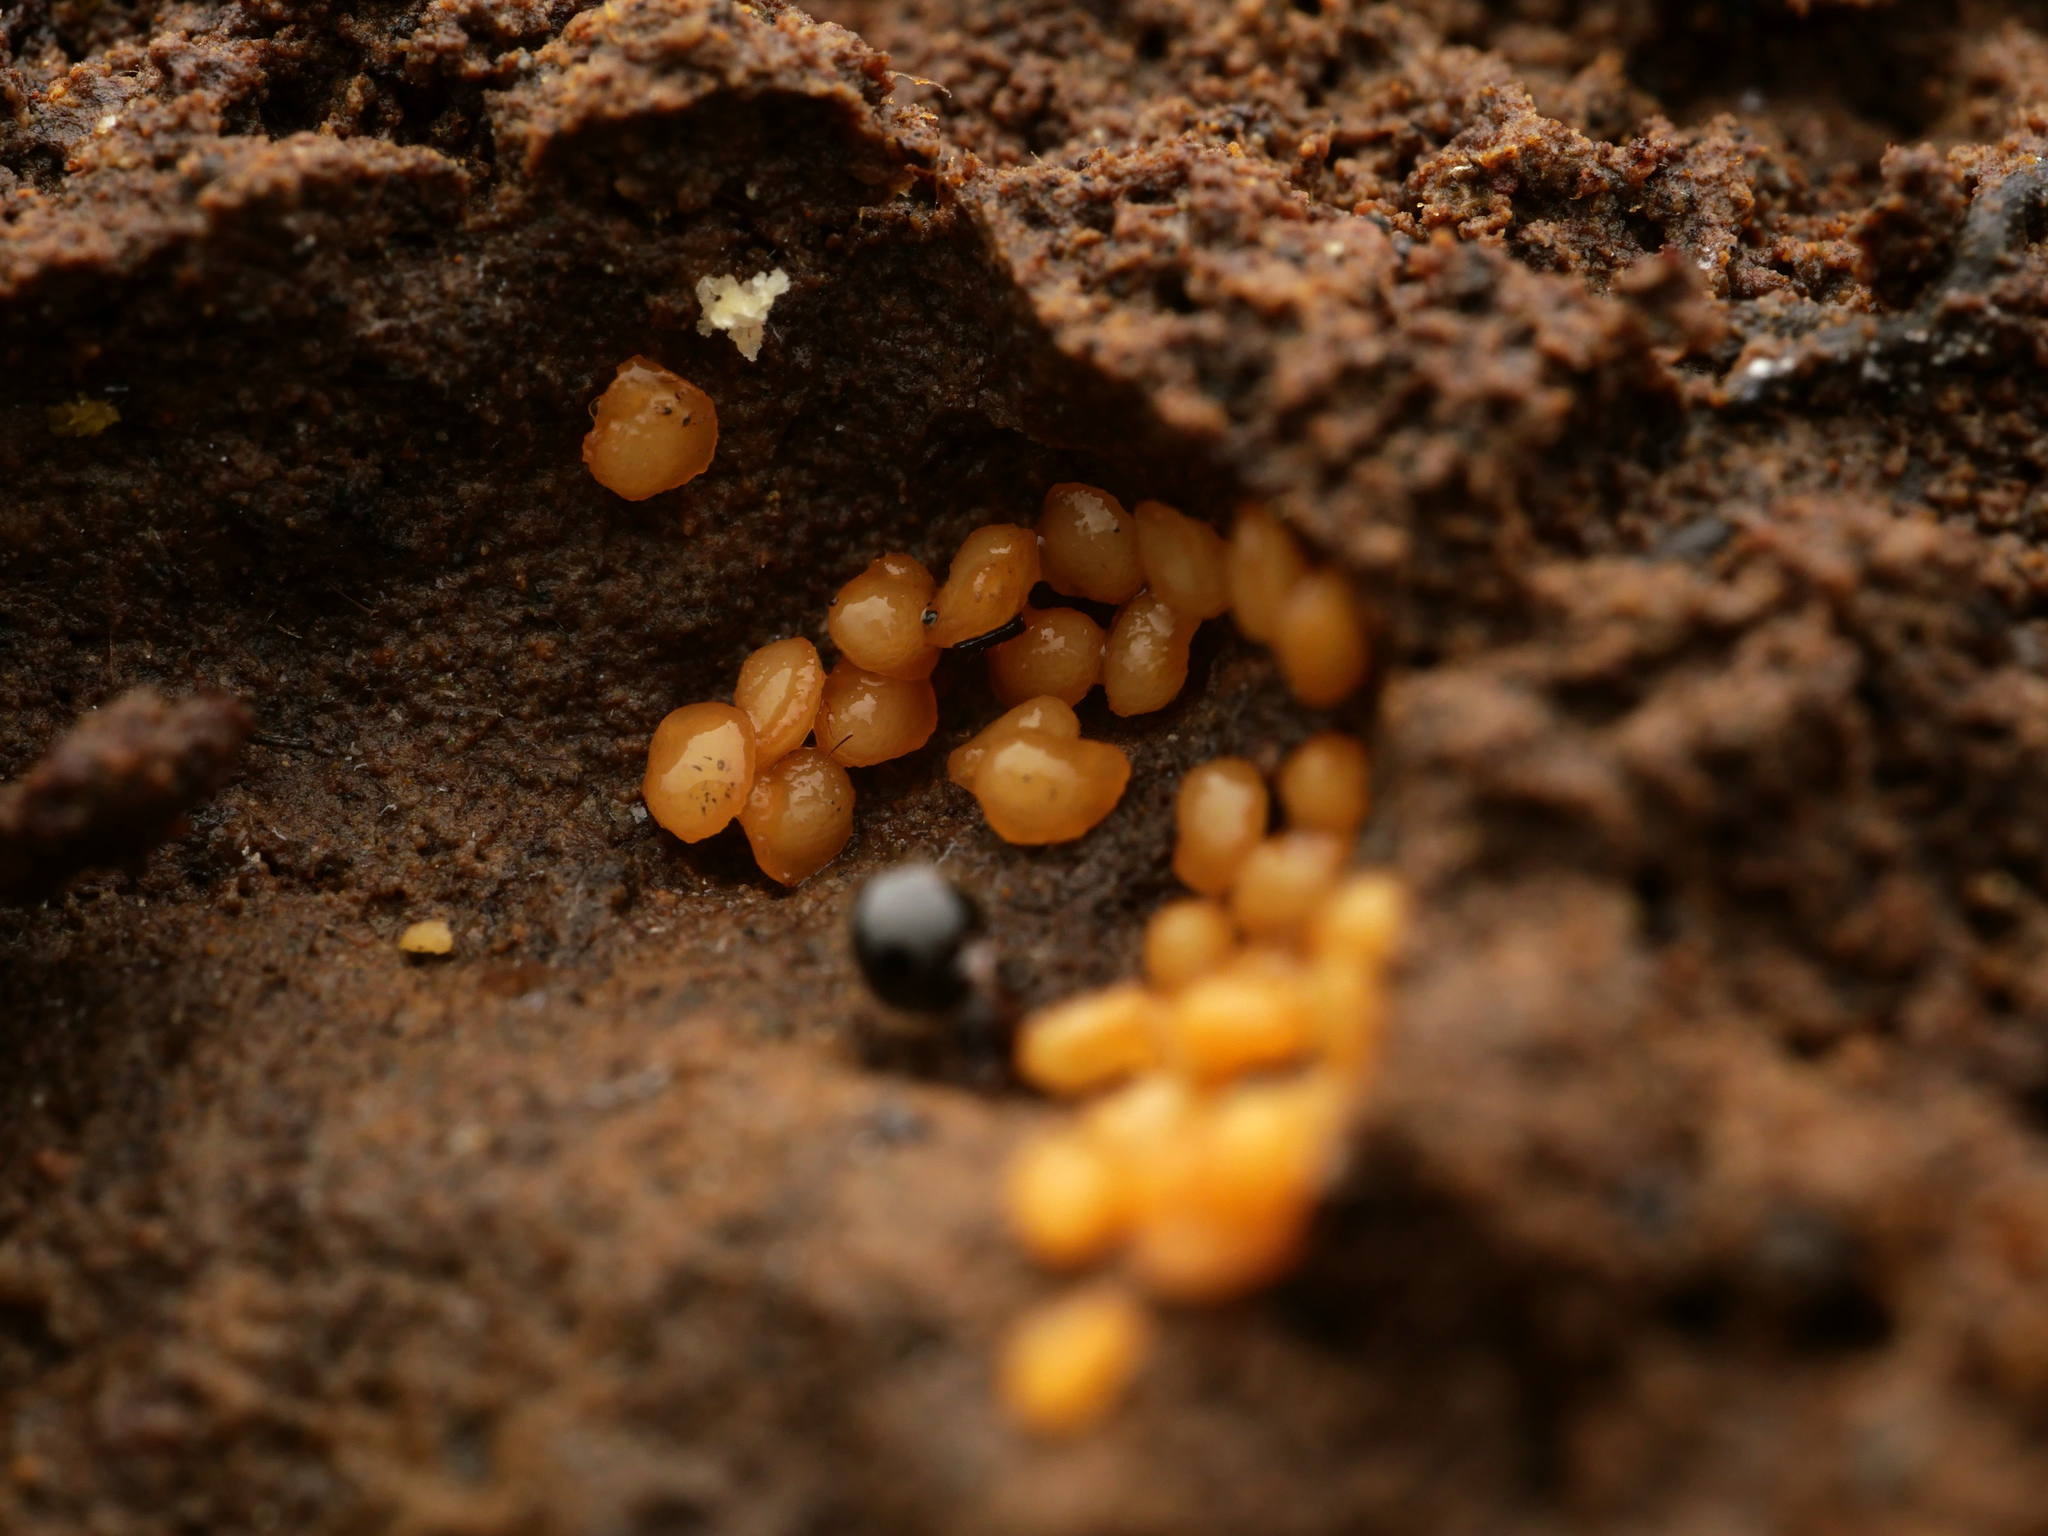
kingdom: Animalia
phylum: Arthropoda
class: Insecta
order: Hymenoptera
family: Formicidae
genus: Pheidole
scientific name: Pheidole cervicornis
